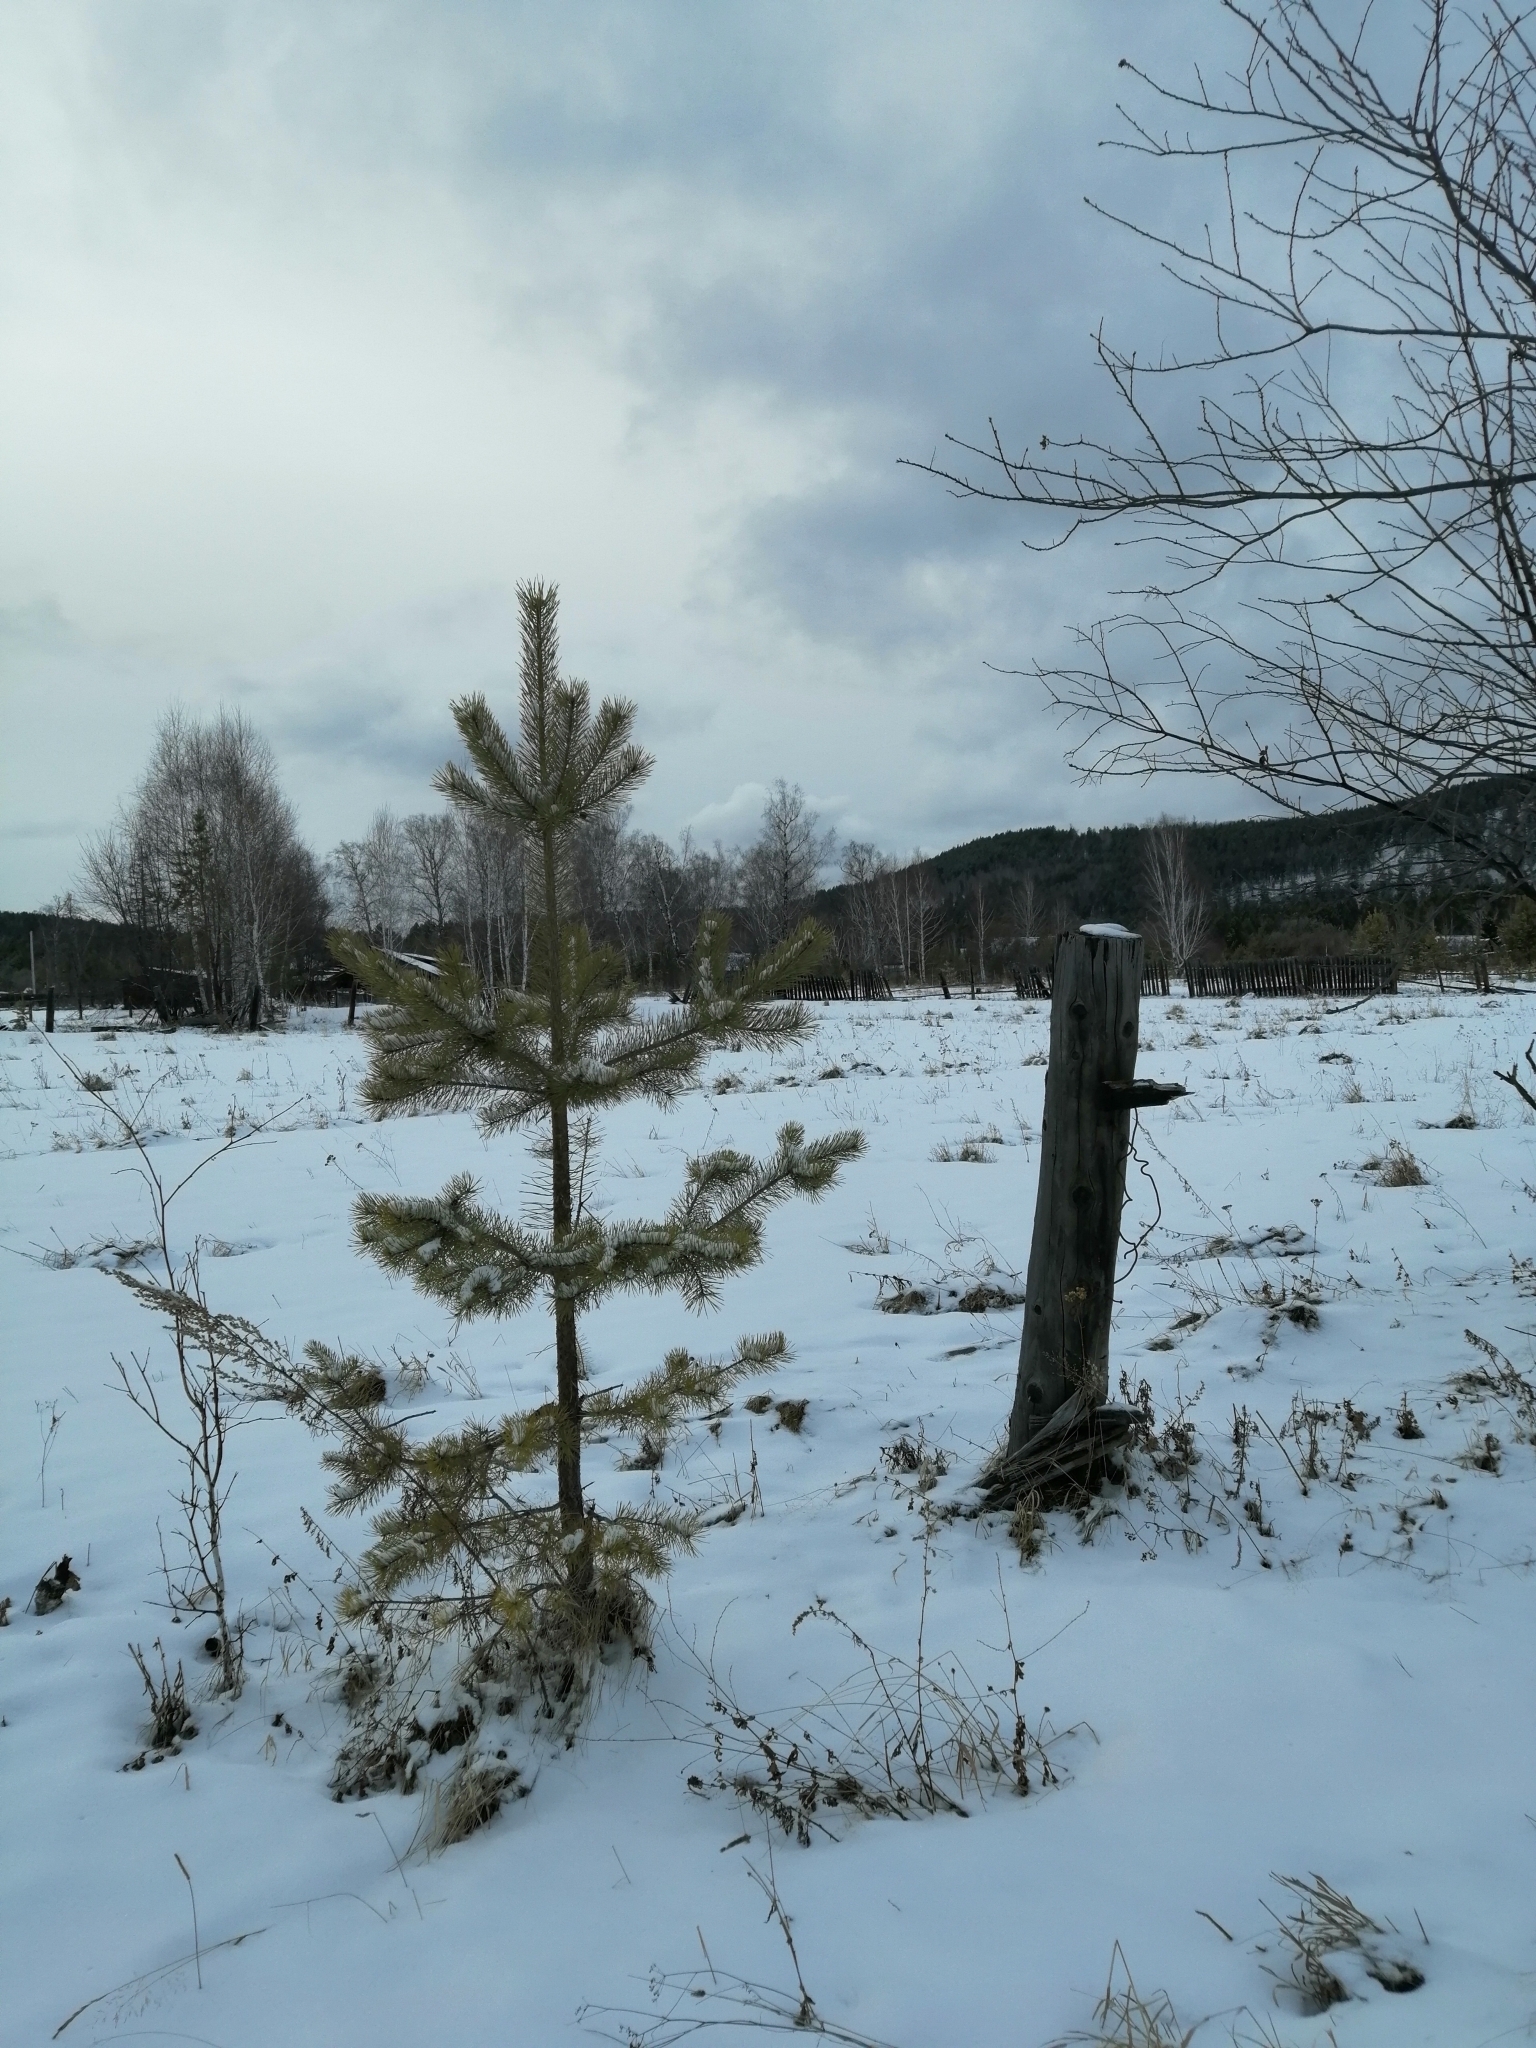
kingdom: Plantae
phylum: Tracheophyta
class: Pinopsida
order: Pinales
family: Pinaceae
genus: Pinus
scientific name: Pinus sylvestris
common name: Scots pine
